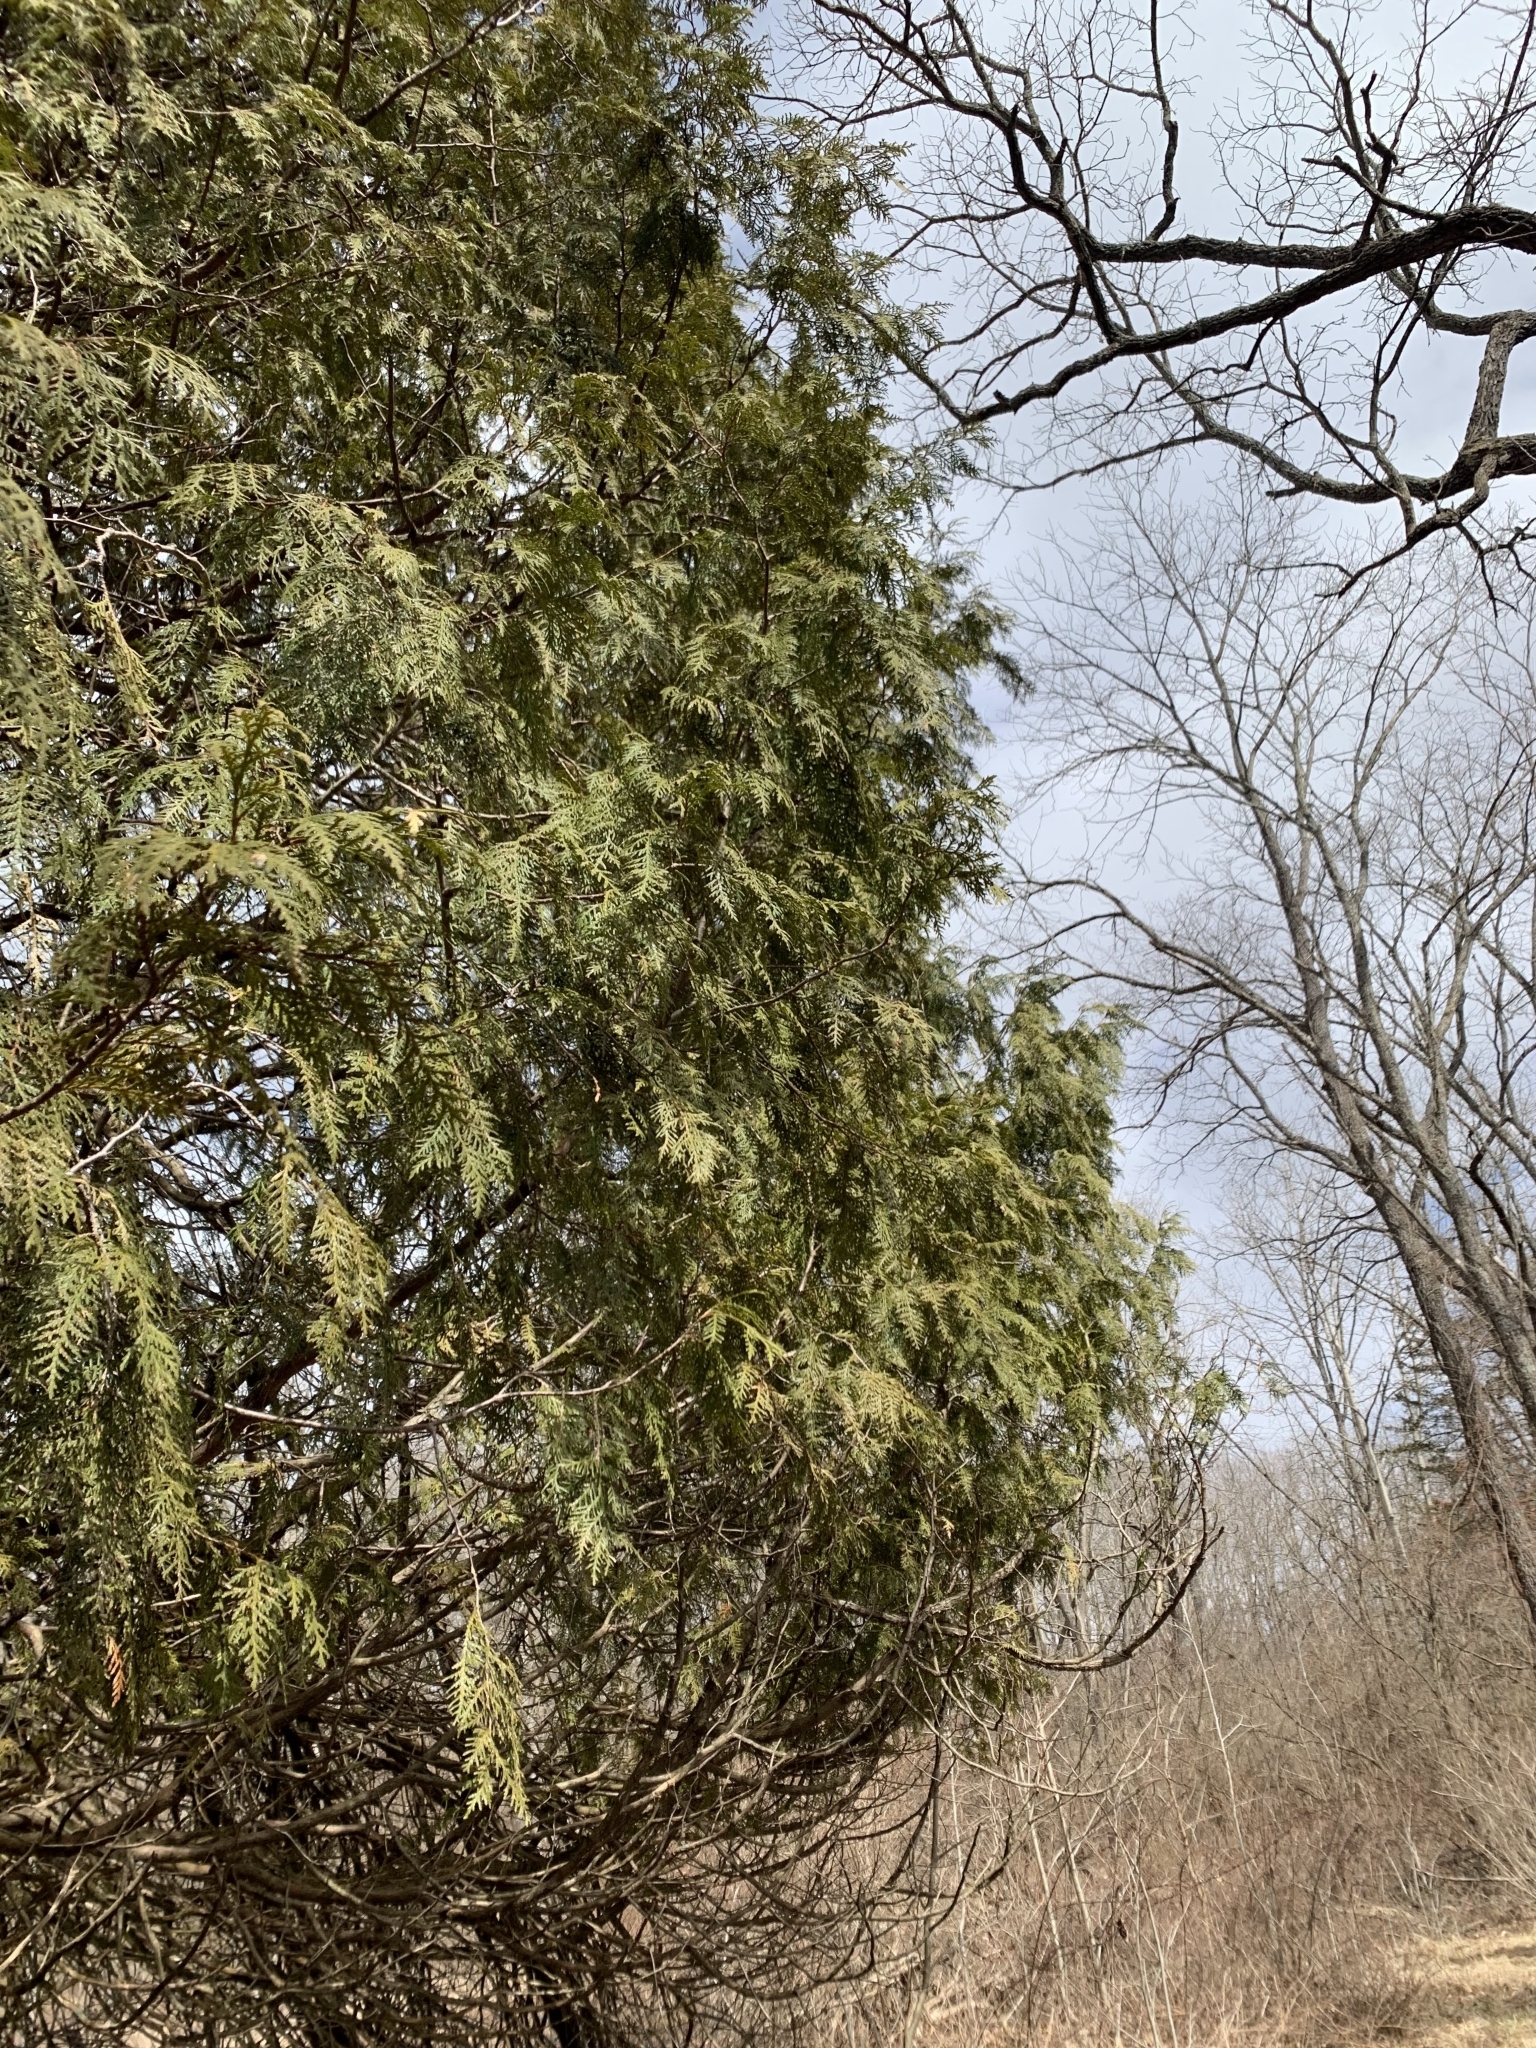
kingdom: Plantae
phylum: Tracheophyta
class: Pinopsida
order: Pinales
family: Cupressaceae
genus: Thuja
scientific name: Thuja occidentalis
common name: Northern white-cedar
